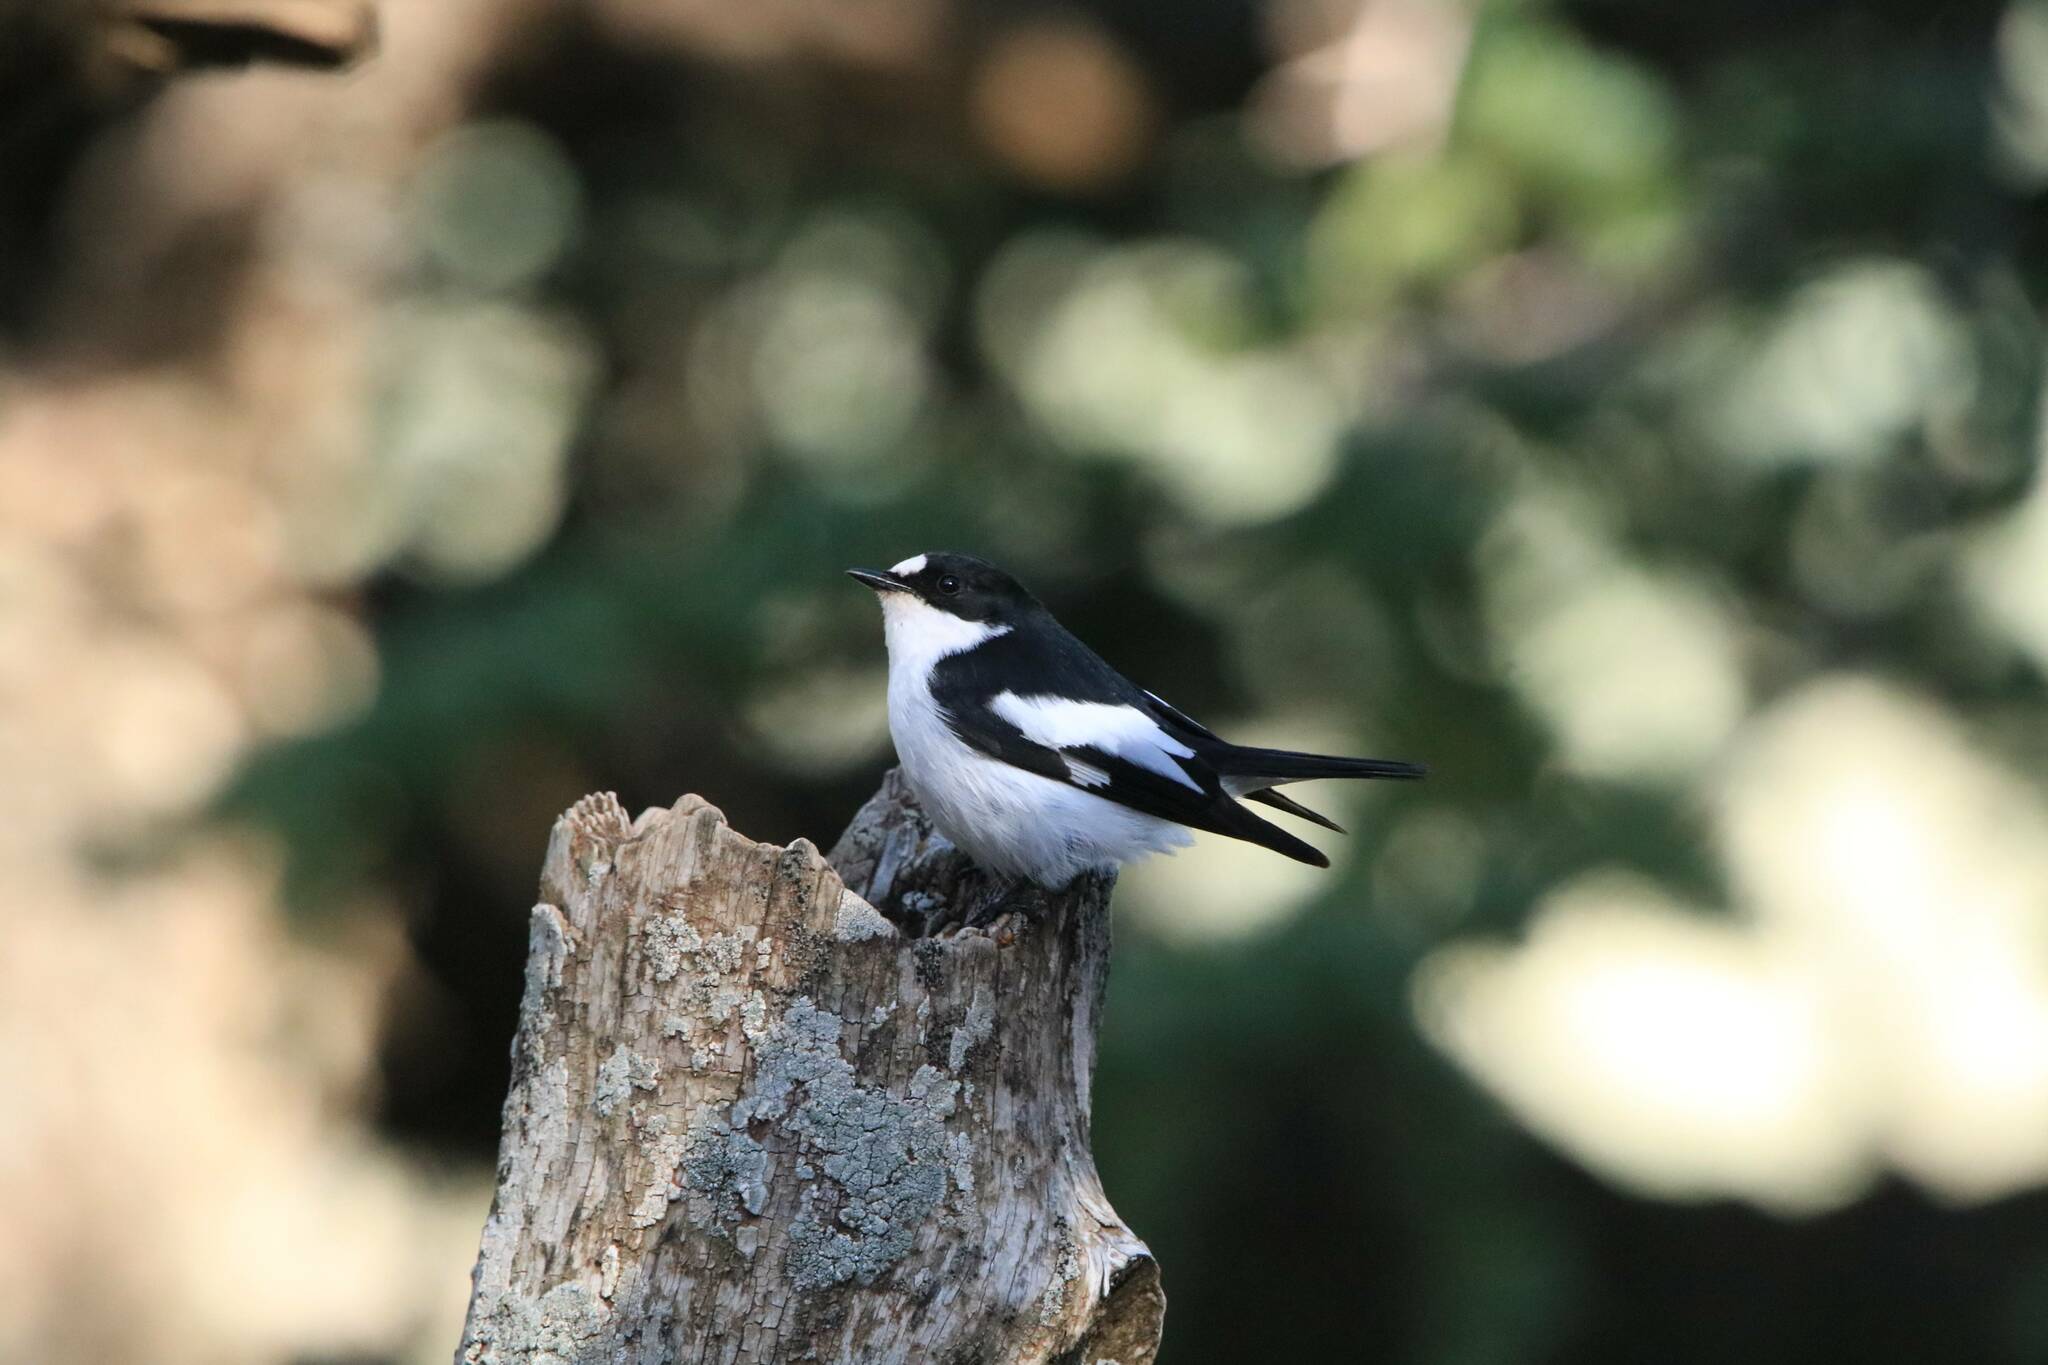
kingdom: Animalia
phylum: Chordata
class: Aves
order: Passeriformes
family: Muscicapidae
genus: Ficedula
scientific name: Ficedula speculigera
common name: Atlas pied flycatcher
